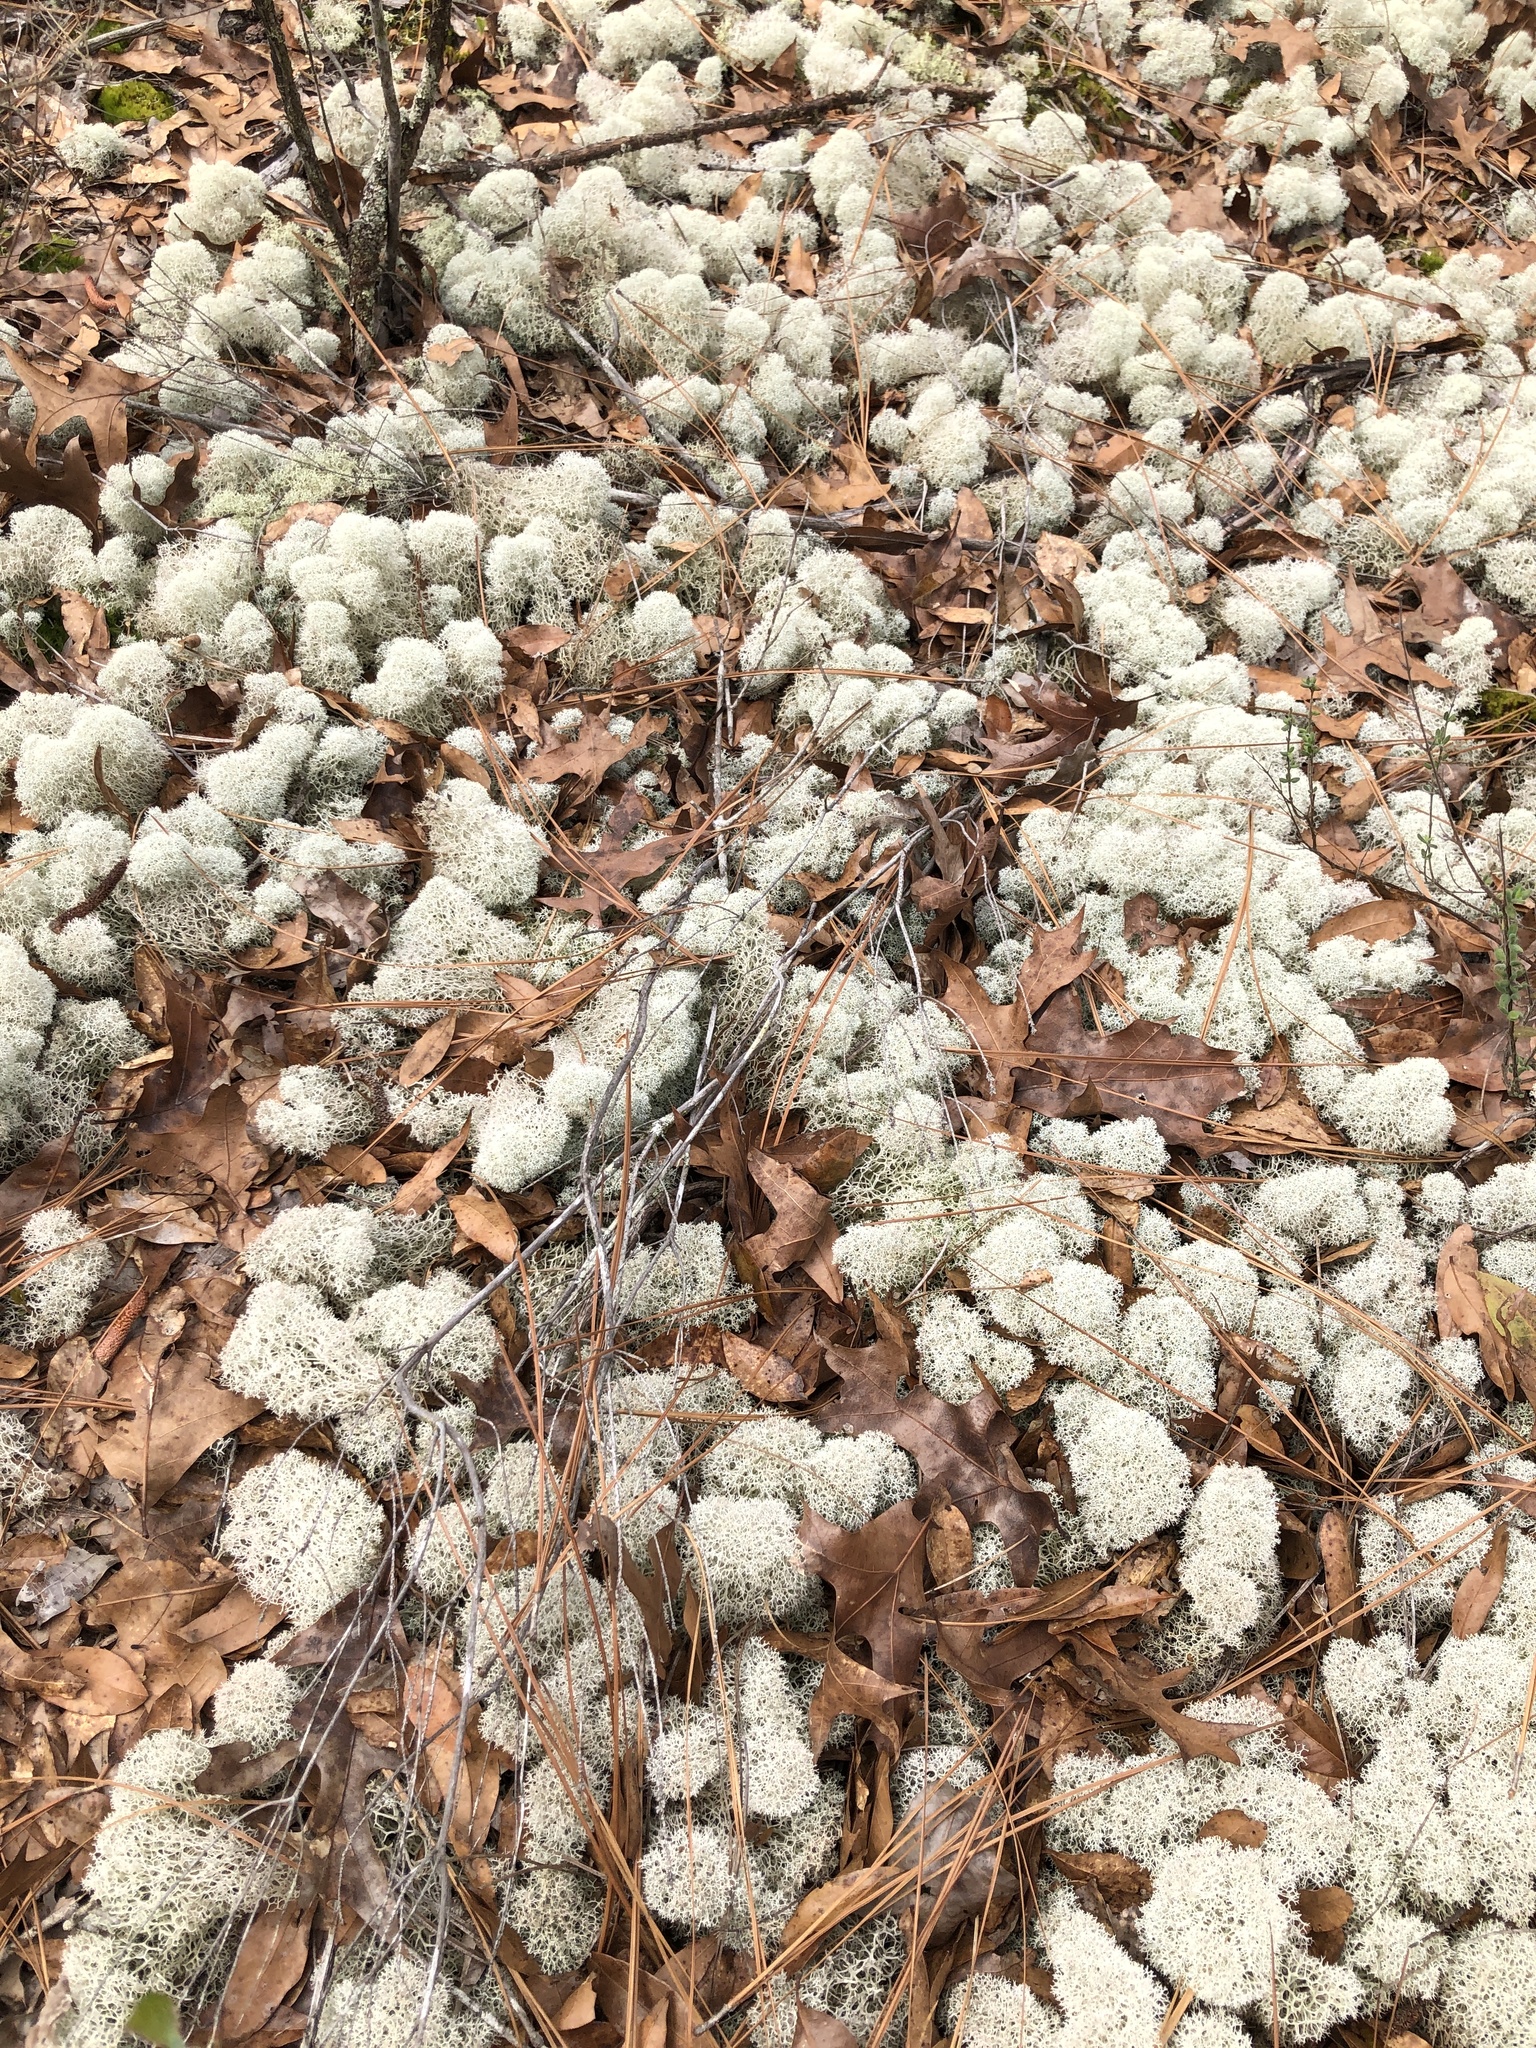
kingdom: Fungi
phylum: Ascomycota
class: Lecanoromycetes
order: Lecanorales
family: Cladoniaceae
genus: Cladonia
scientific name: Cladonia evansii
